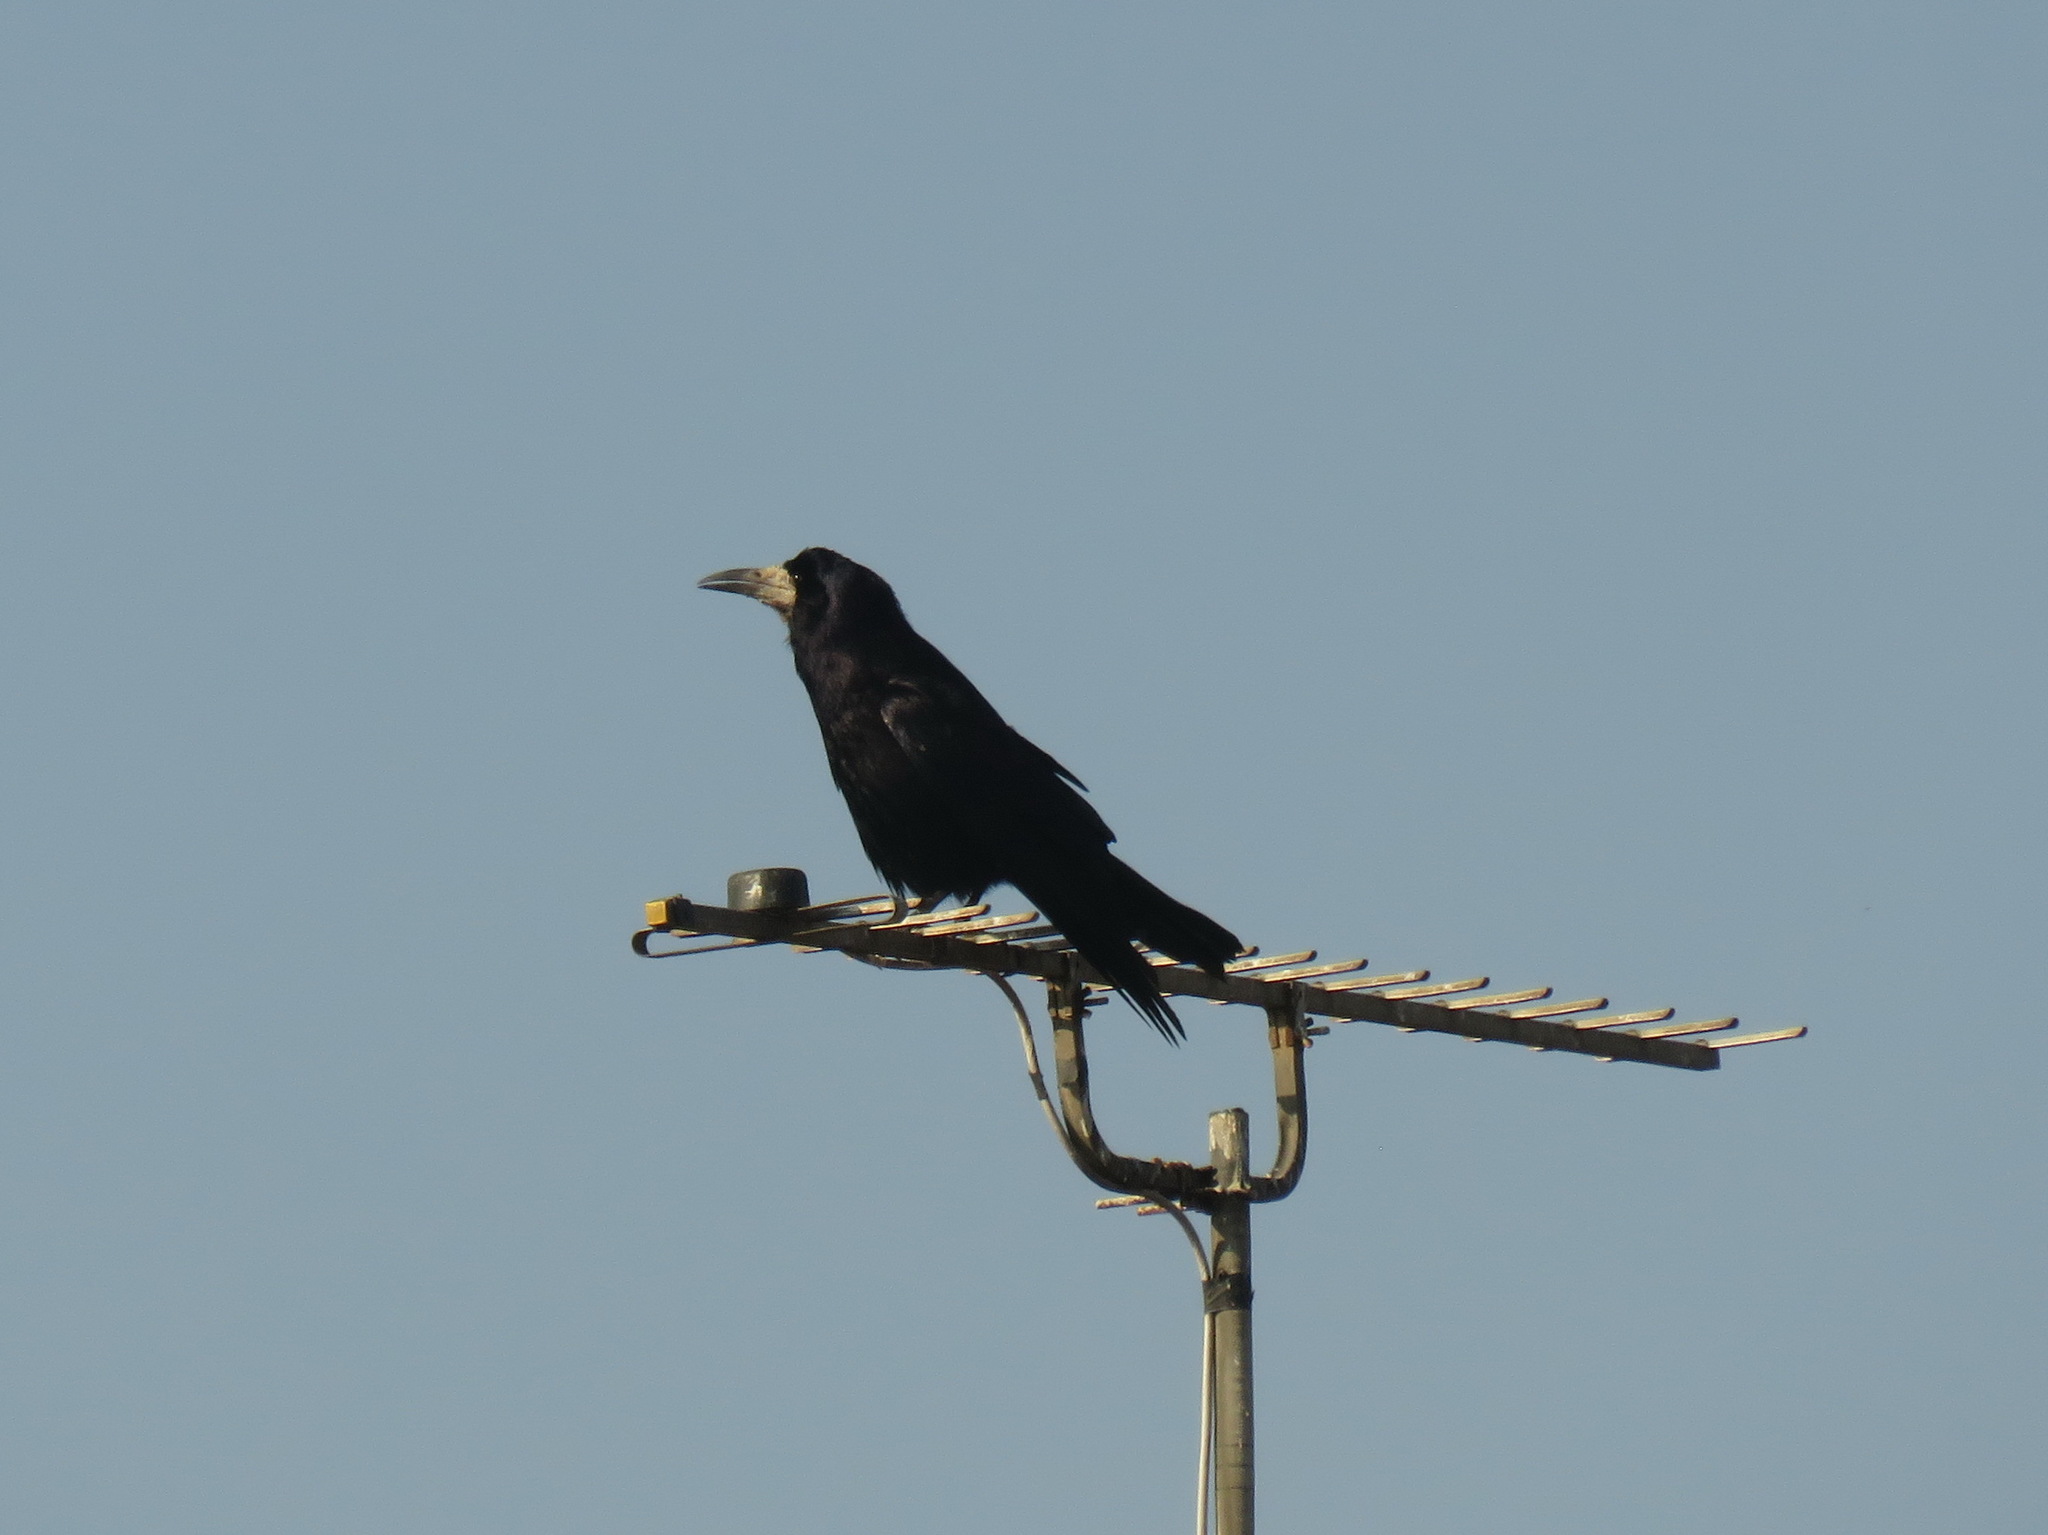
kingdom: Animalia
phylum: Chordata
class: Aves
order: Passeriformes
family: Corvidae
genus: Corvus
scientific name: Corvus frugilegus
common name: Rook
